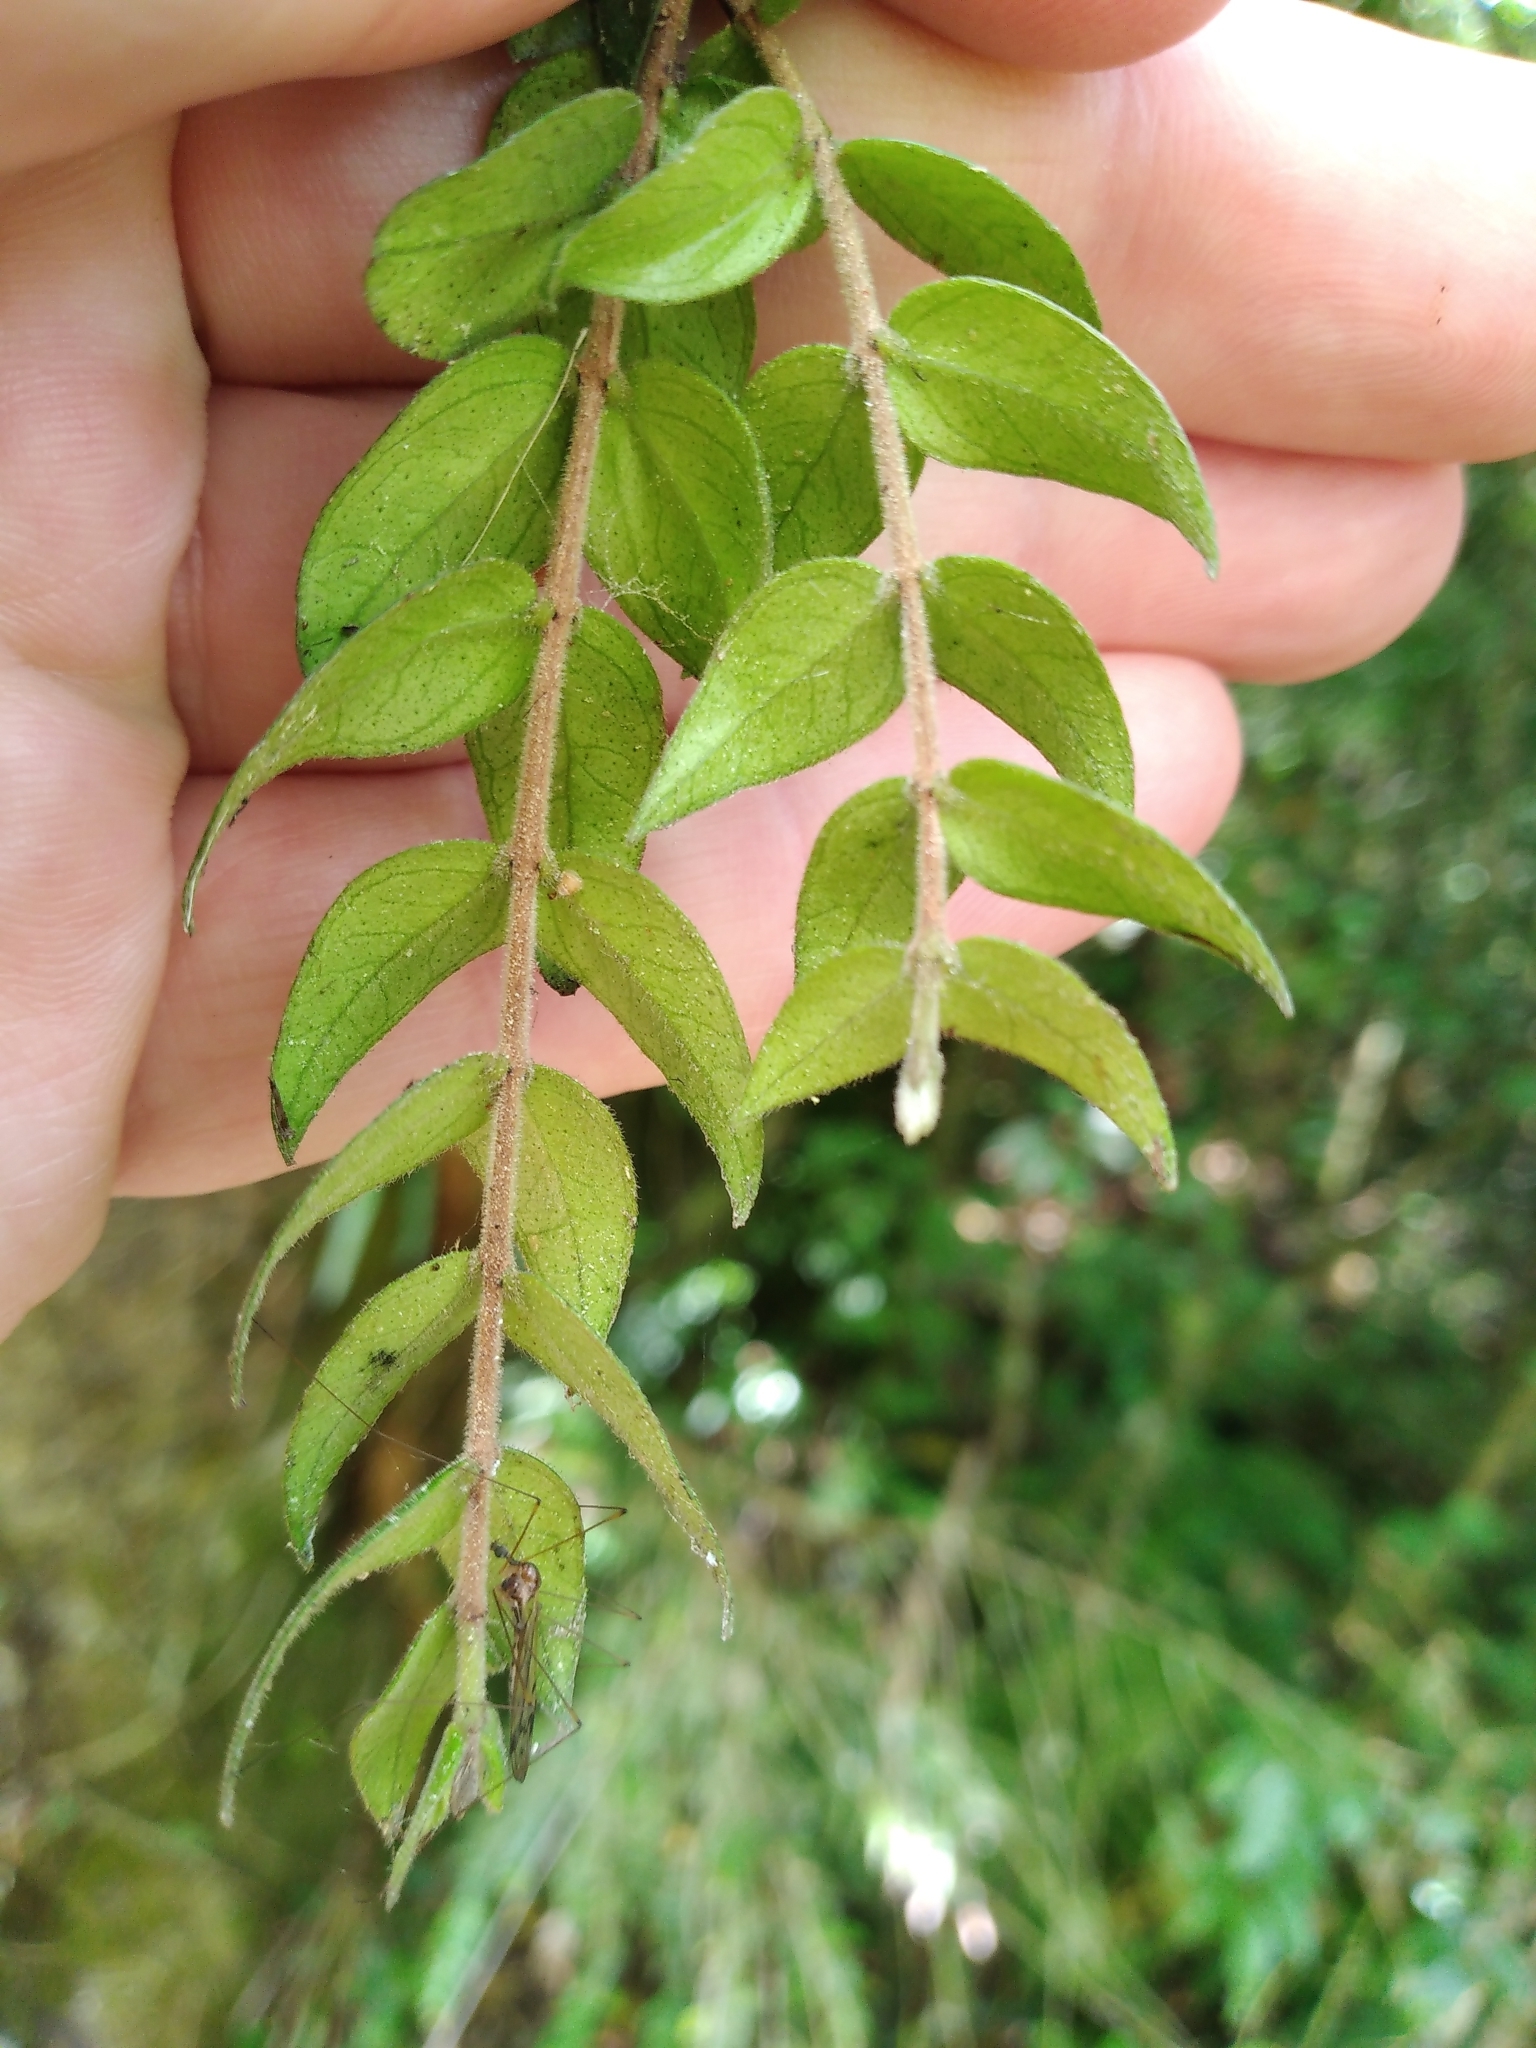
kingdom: Plantae
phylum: Tracheophyta
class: Magnoliopsida
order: Myrtales
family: Myrtaceae
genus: Metrosideros
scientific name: Metrosideros colensoi
